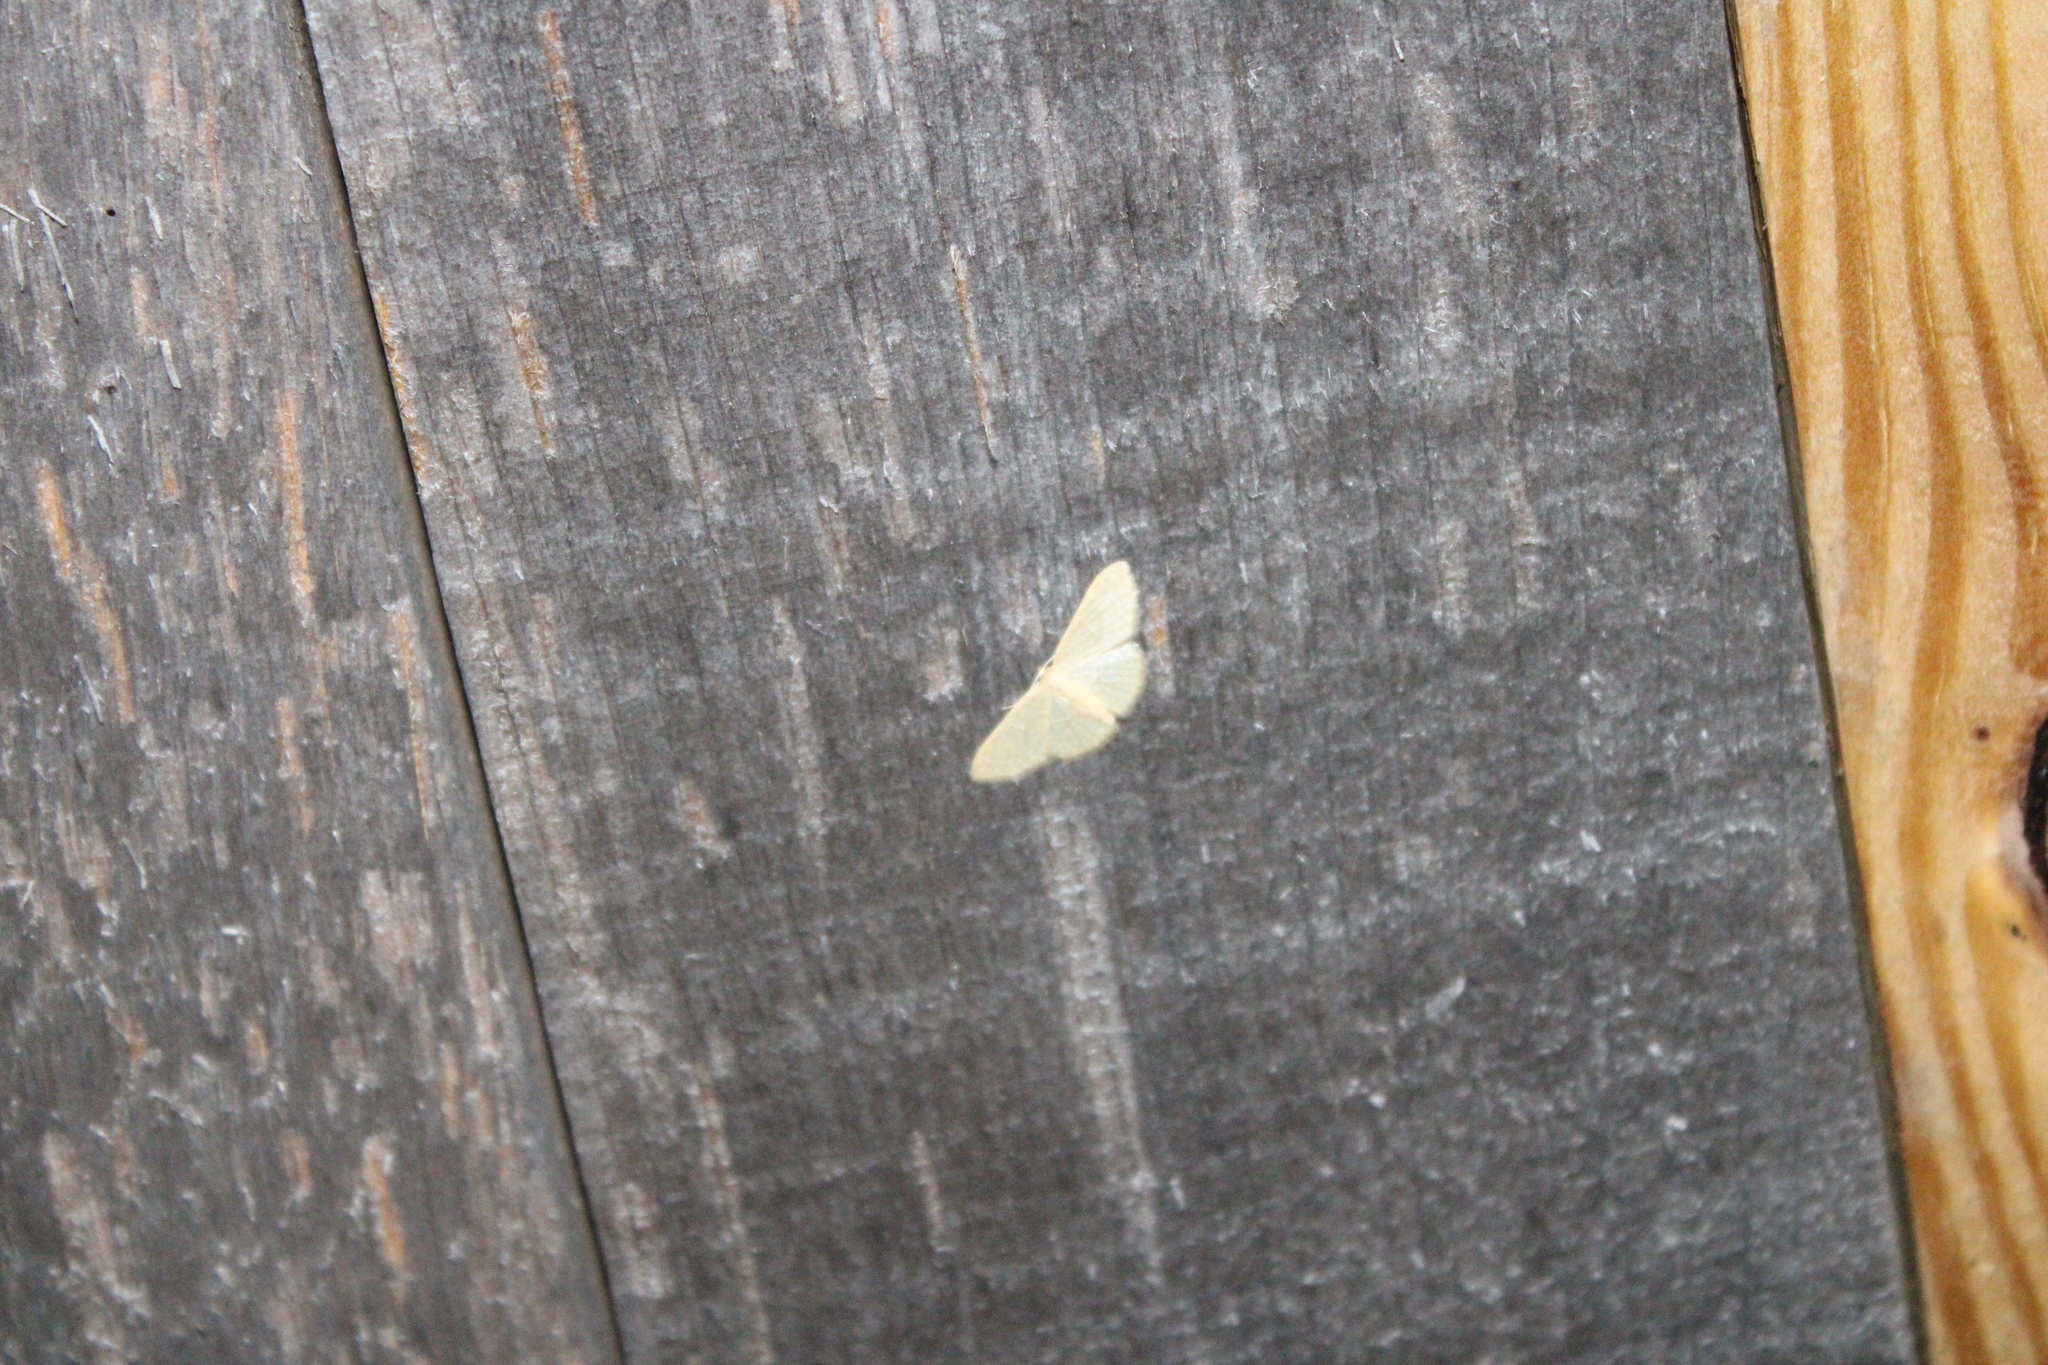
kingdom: Animalia
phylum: Arthropoda
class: Insecta
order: Lepidoptera
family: Geometridae
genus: Pleuroprucha
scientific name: Pleuroprucha insulsaria
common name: Common tan wave
